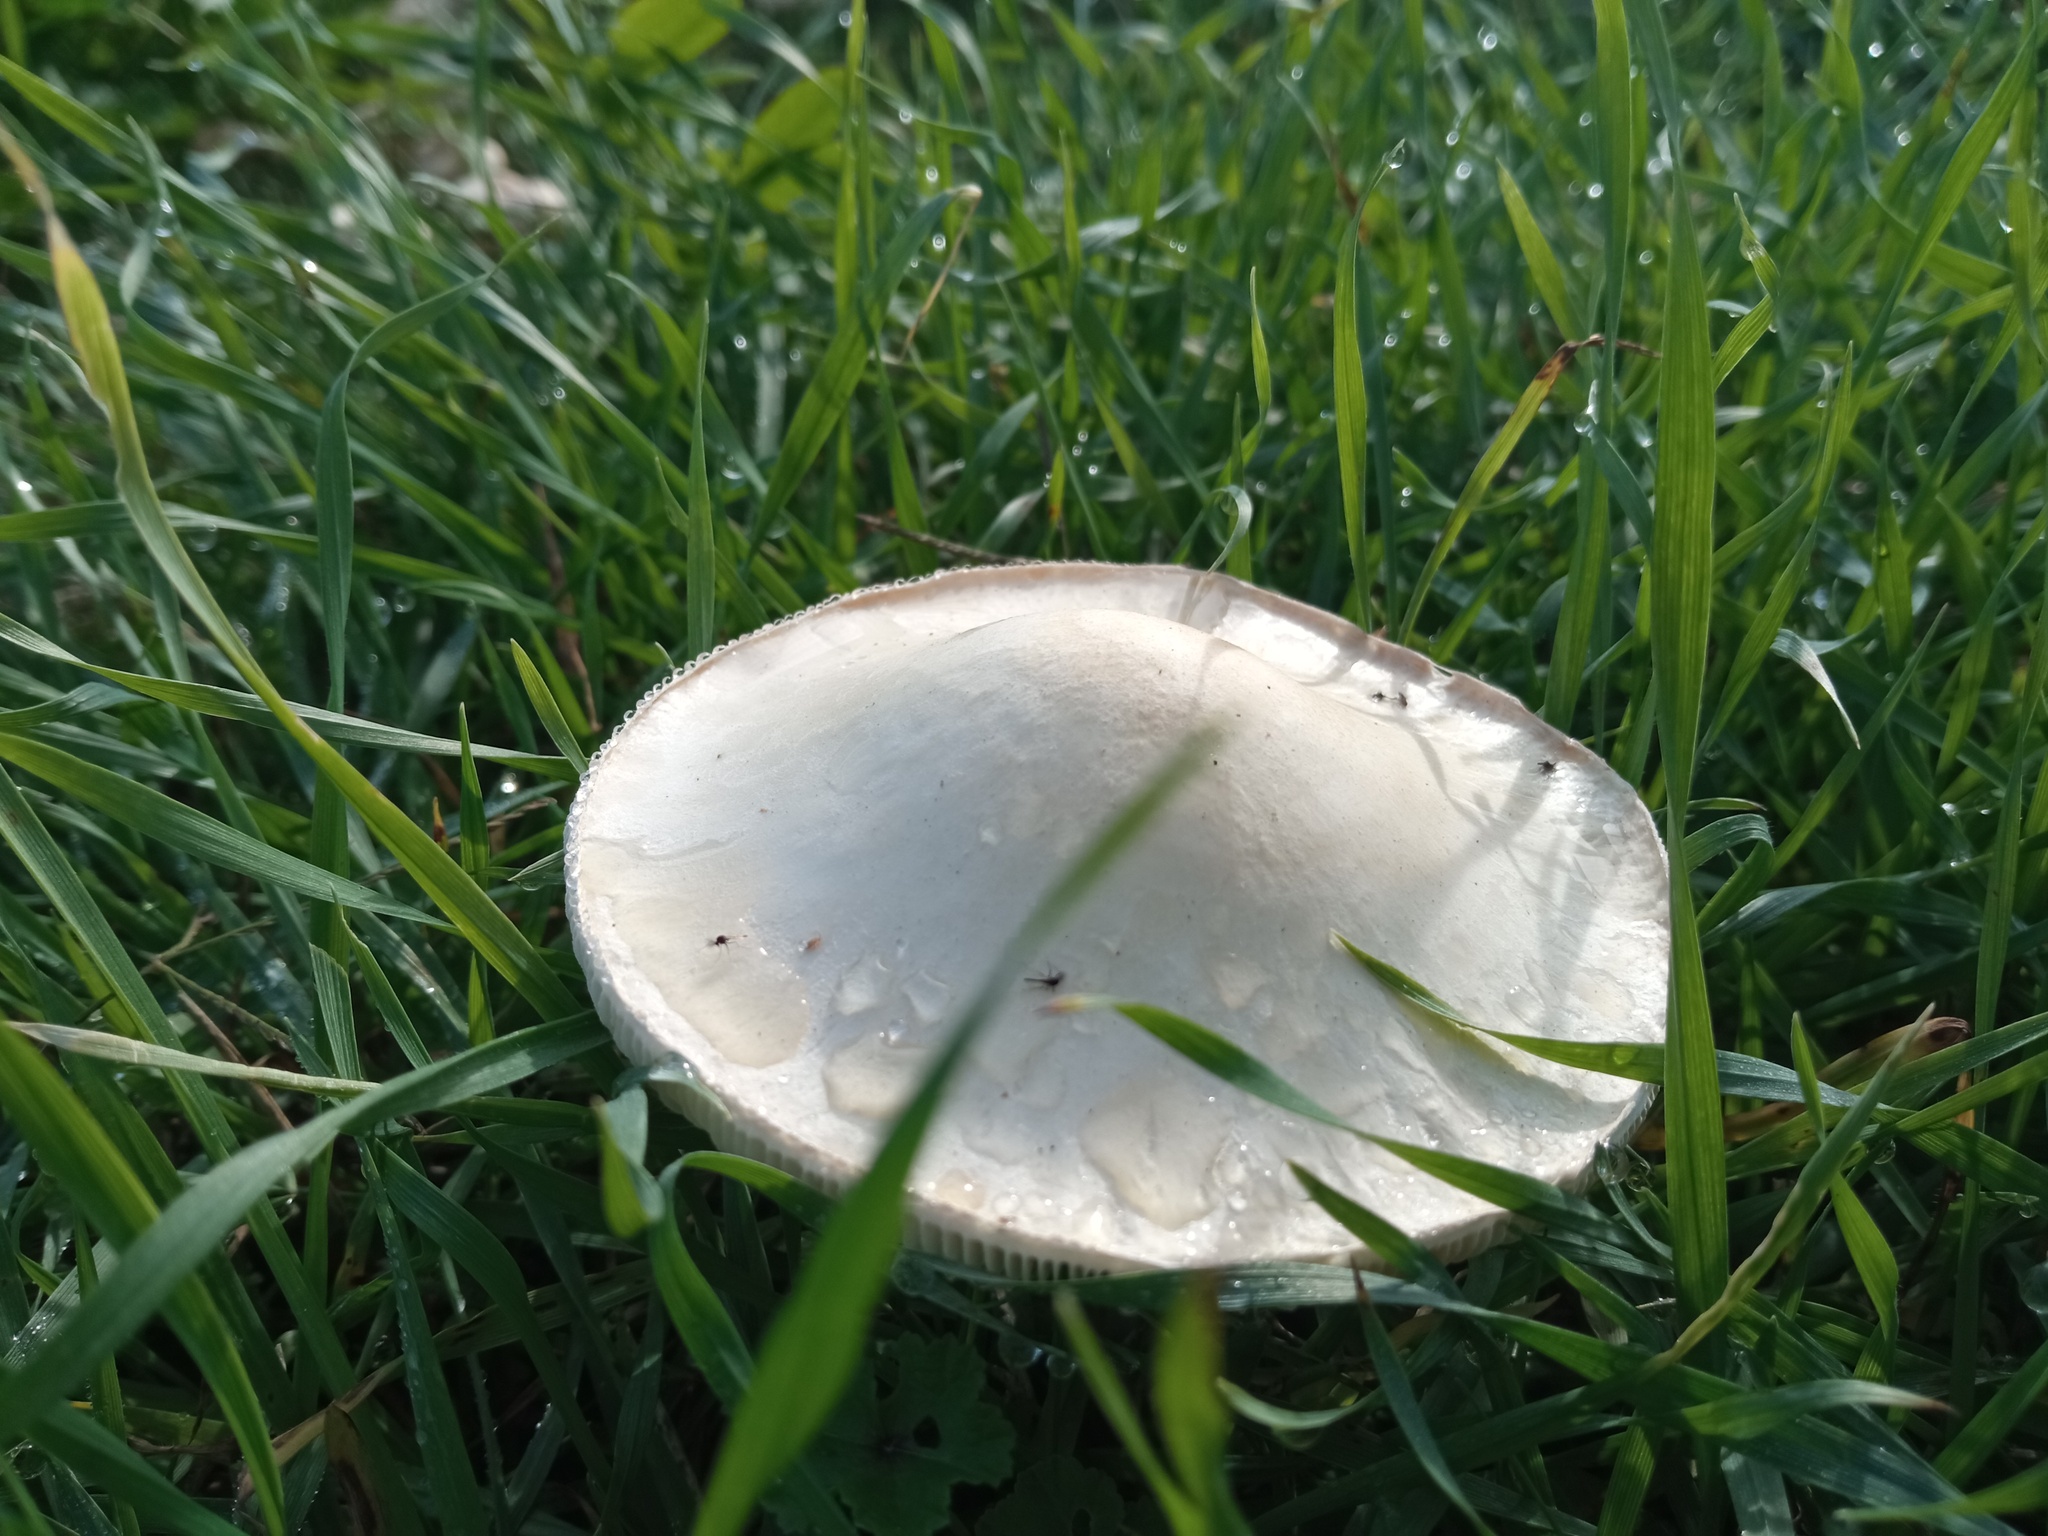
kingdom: Fungi
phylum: Basidiomycota
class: Agaricomycetes
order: Agaricales
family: Agaricaceae
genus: Leucoagaricus
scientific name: Leucoagaricus leucothites
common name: White dapperling
